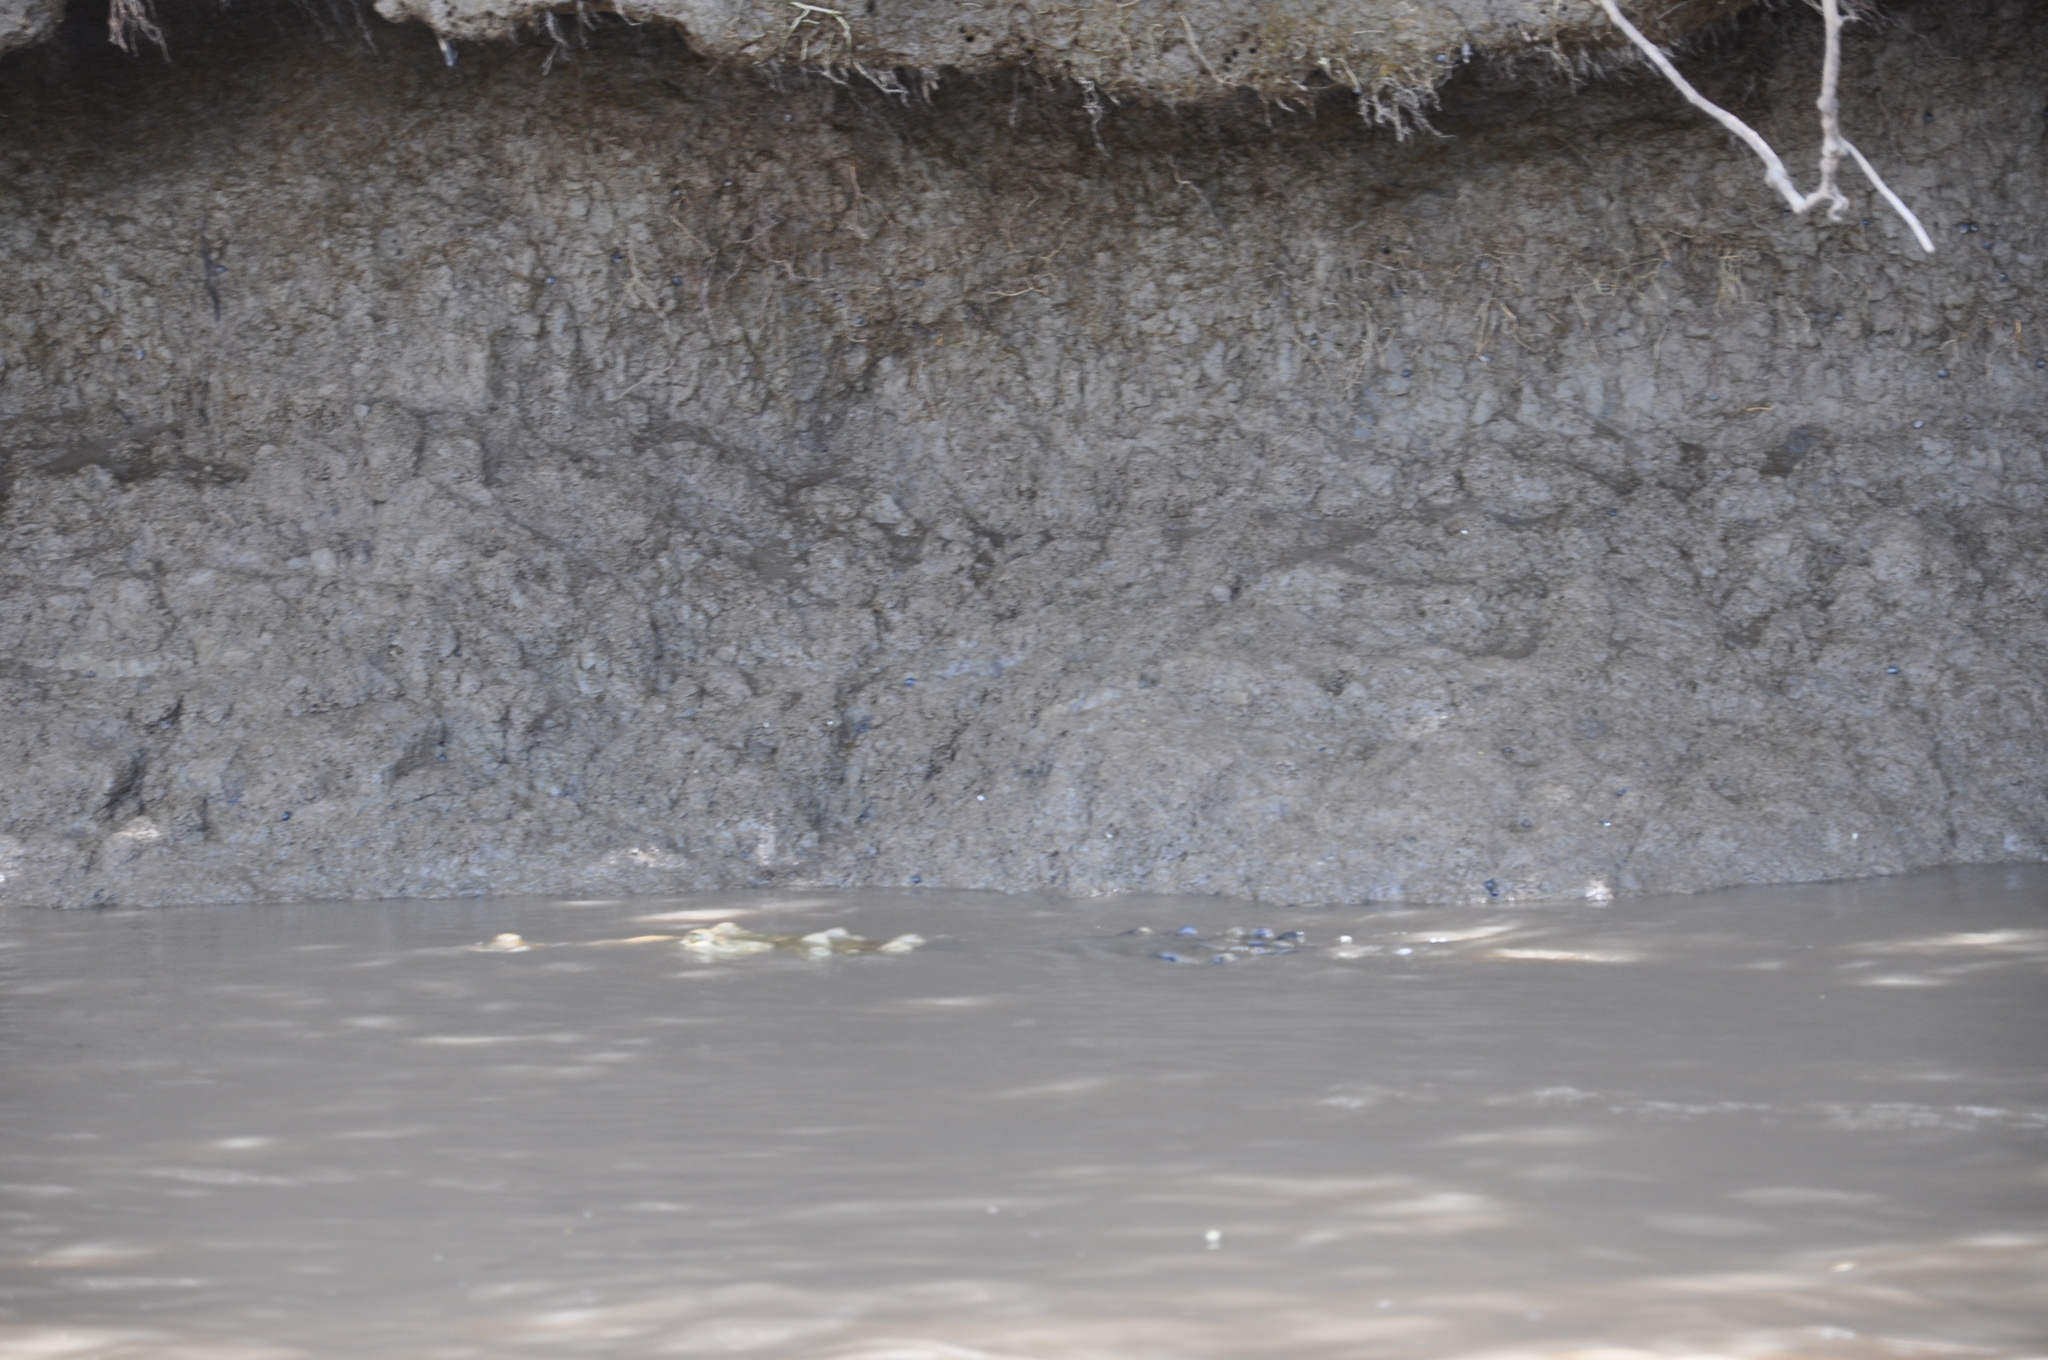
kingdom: Animalia
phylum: Chordata
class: Crocodylia
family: Crocodylidae
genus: Crocodylus
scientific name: Crocodylus acutus
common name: American crocodile
